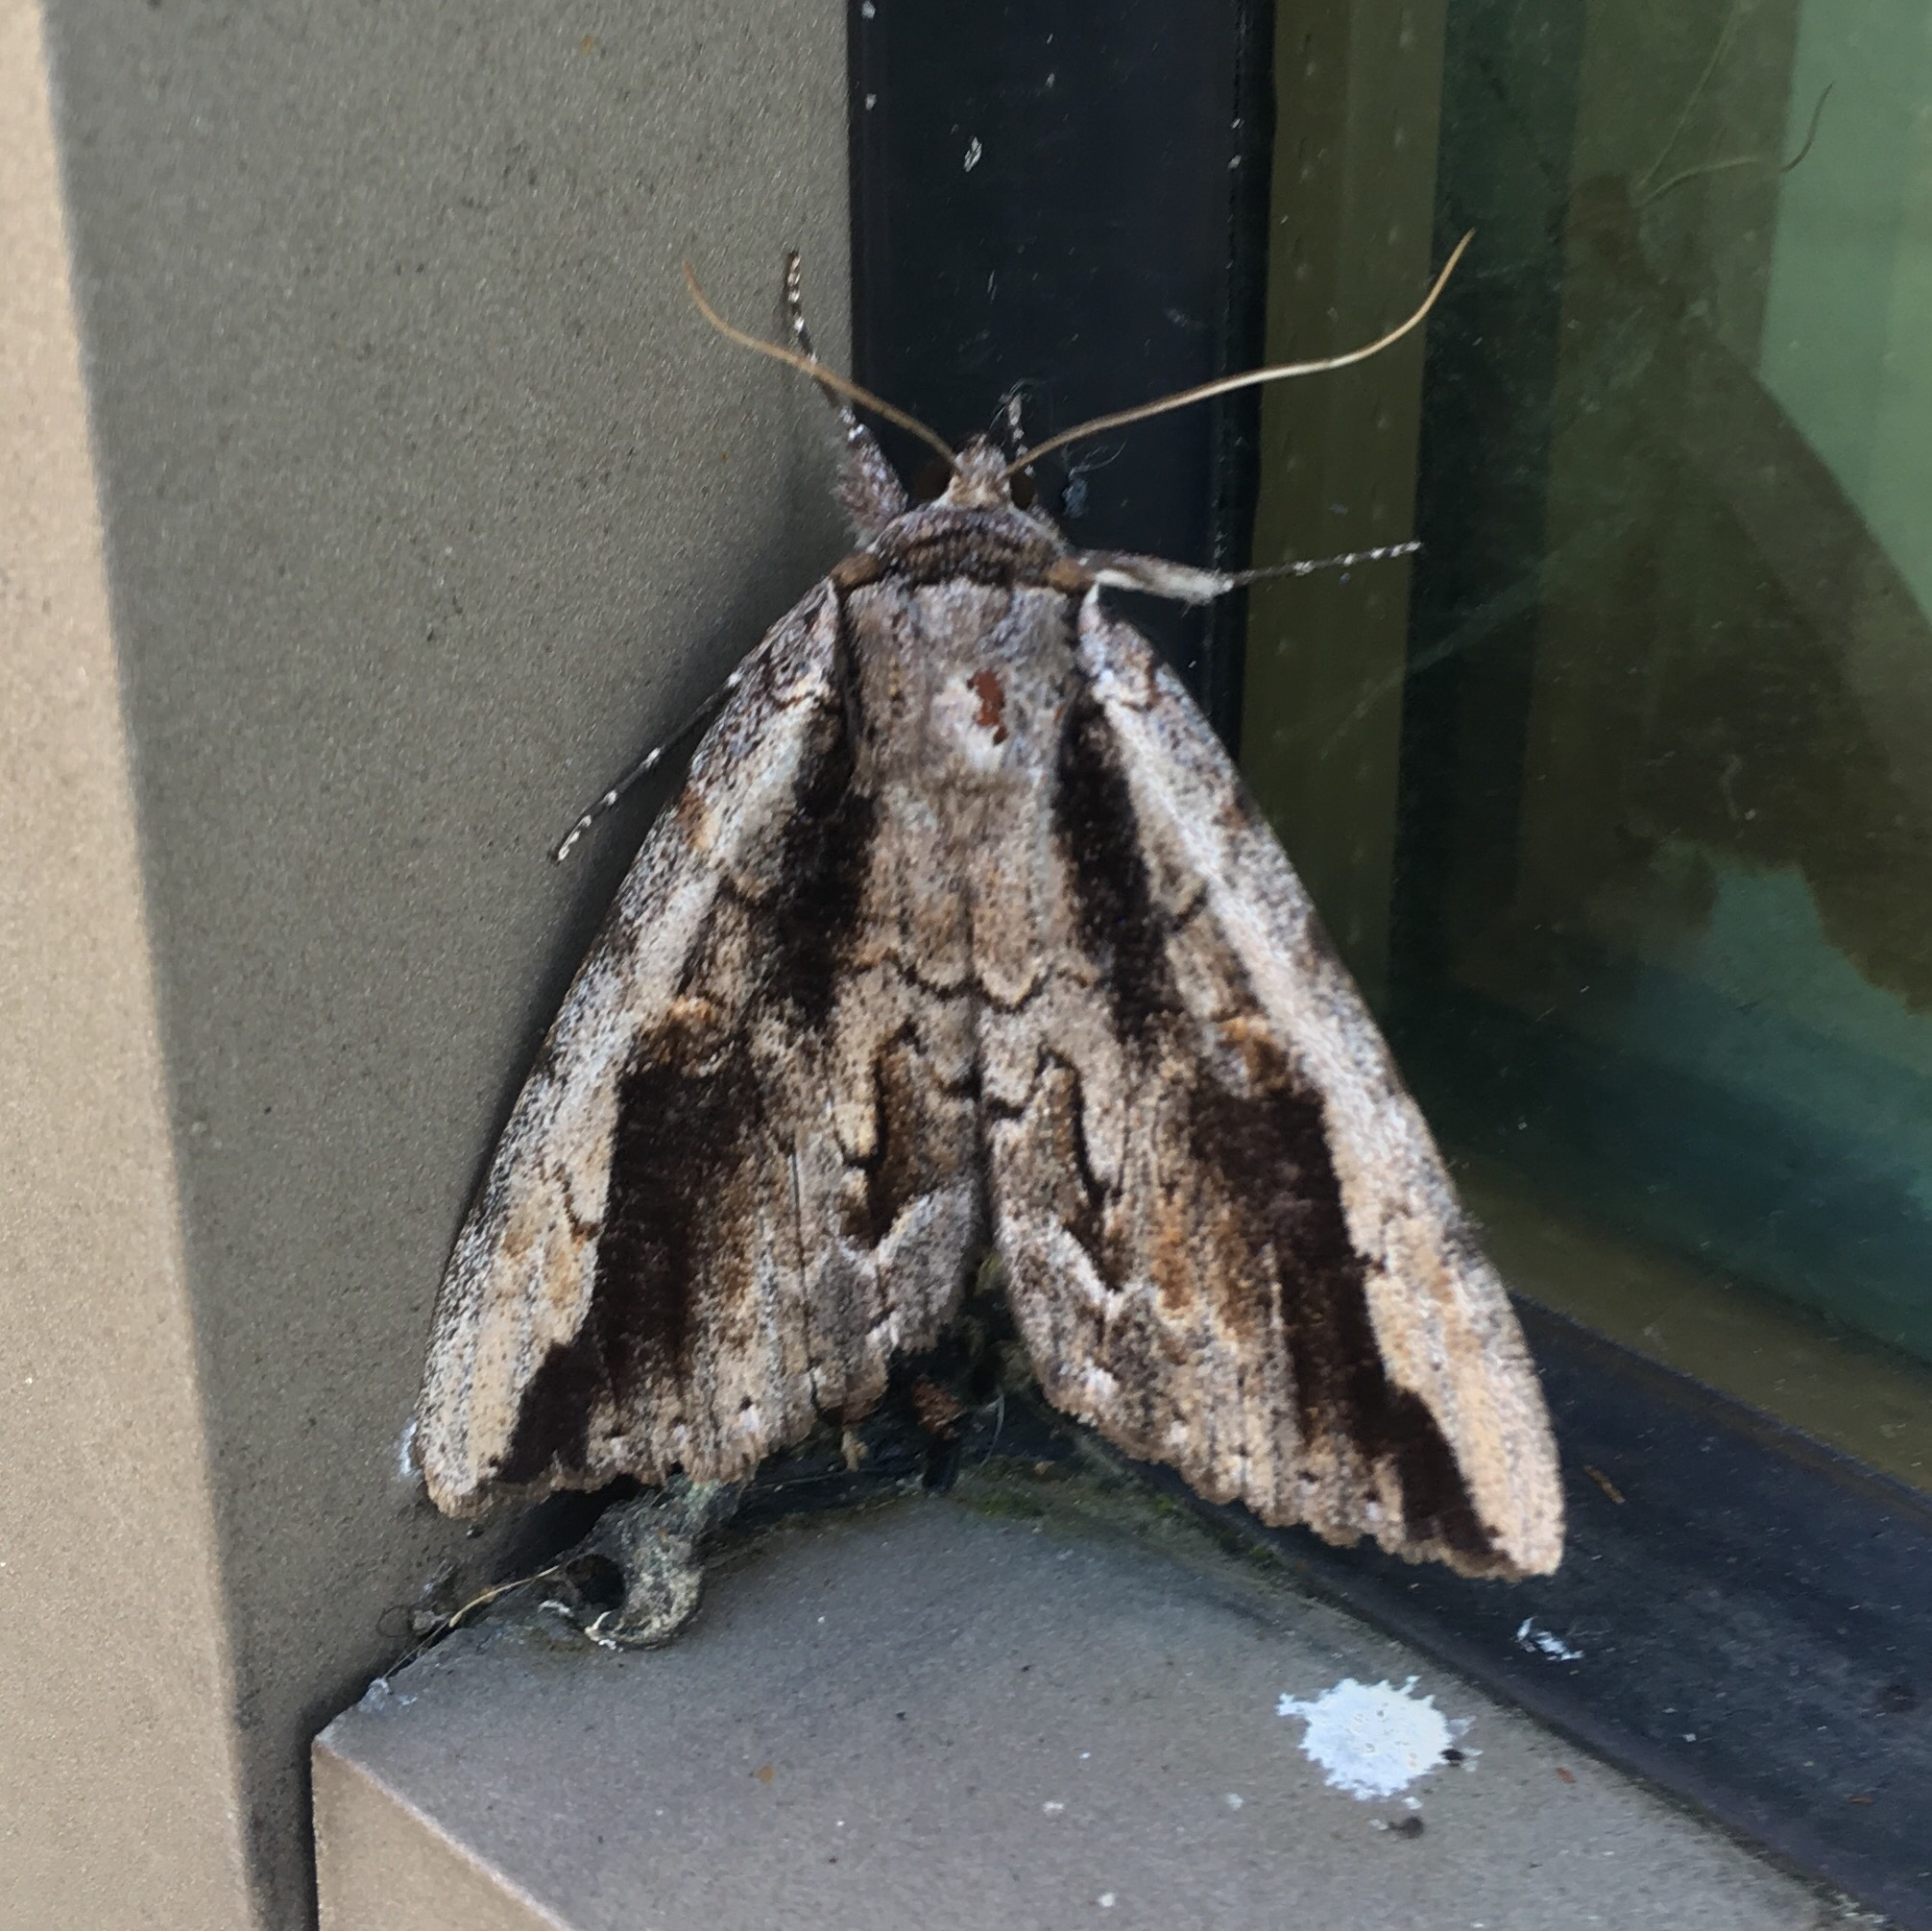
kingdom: Animalia
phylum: Arthropoda
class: Insecta
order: Lepidoptera
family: Erebidae
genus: Catocala
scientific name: Catocala angusi
